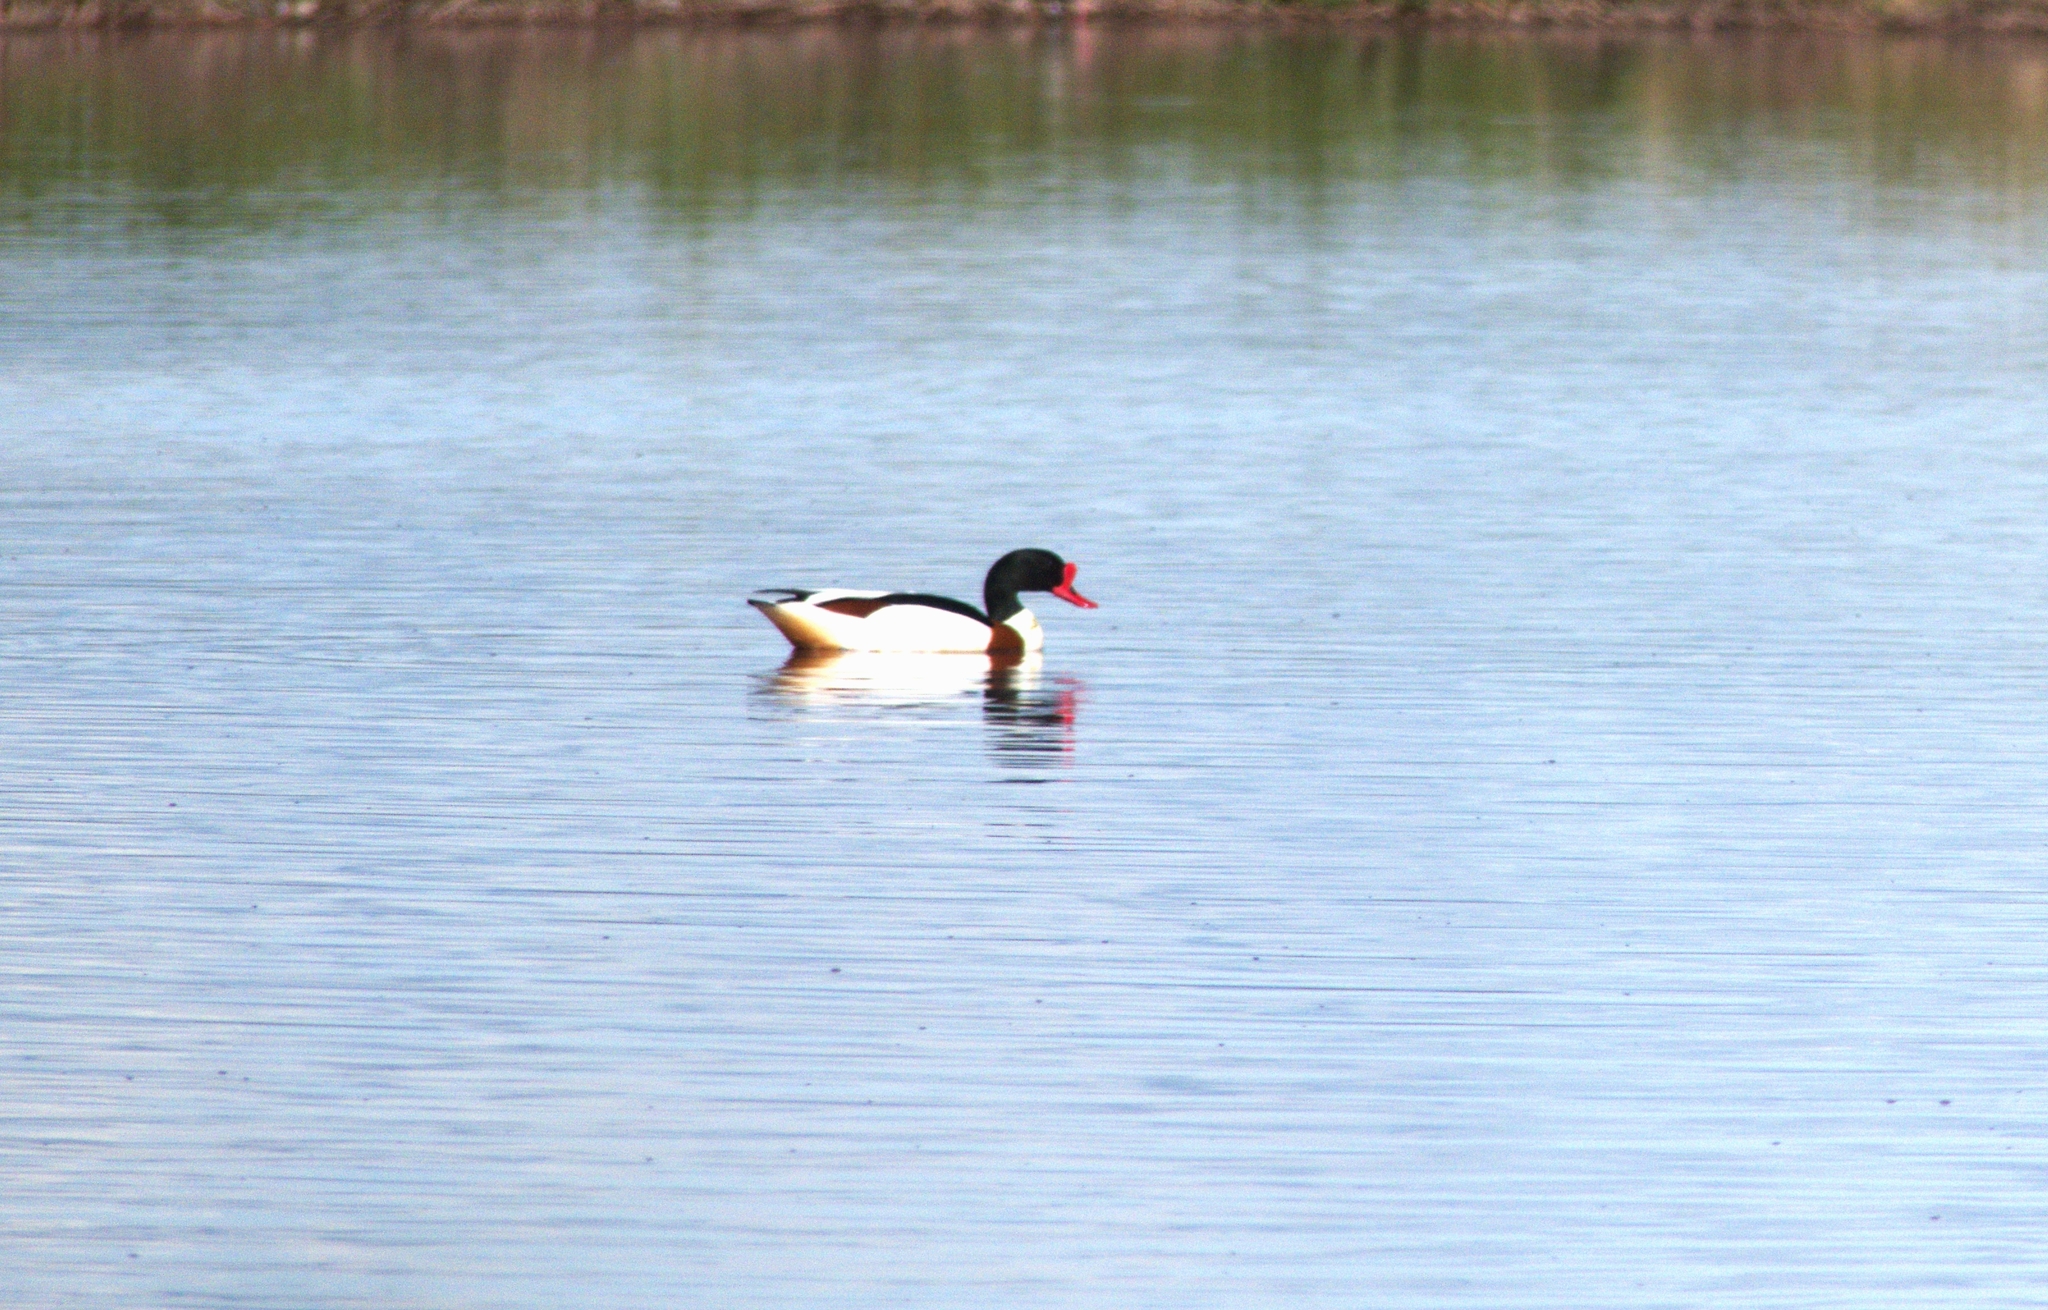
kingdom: Animalia
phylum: Chordata
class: Aves
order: Anseriformes
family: Anatidae
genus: Tadorna
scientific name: Tadorna tadorna
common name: Common shelduck
